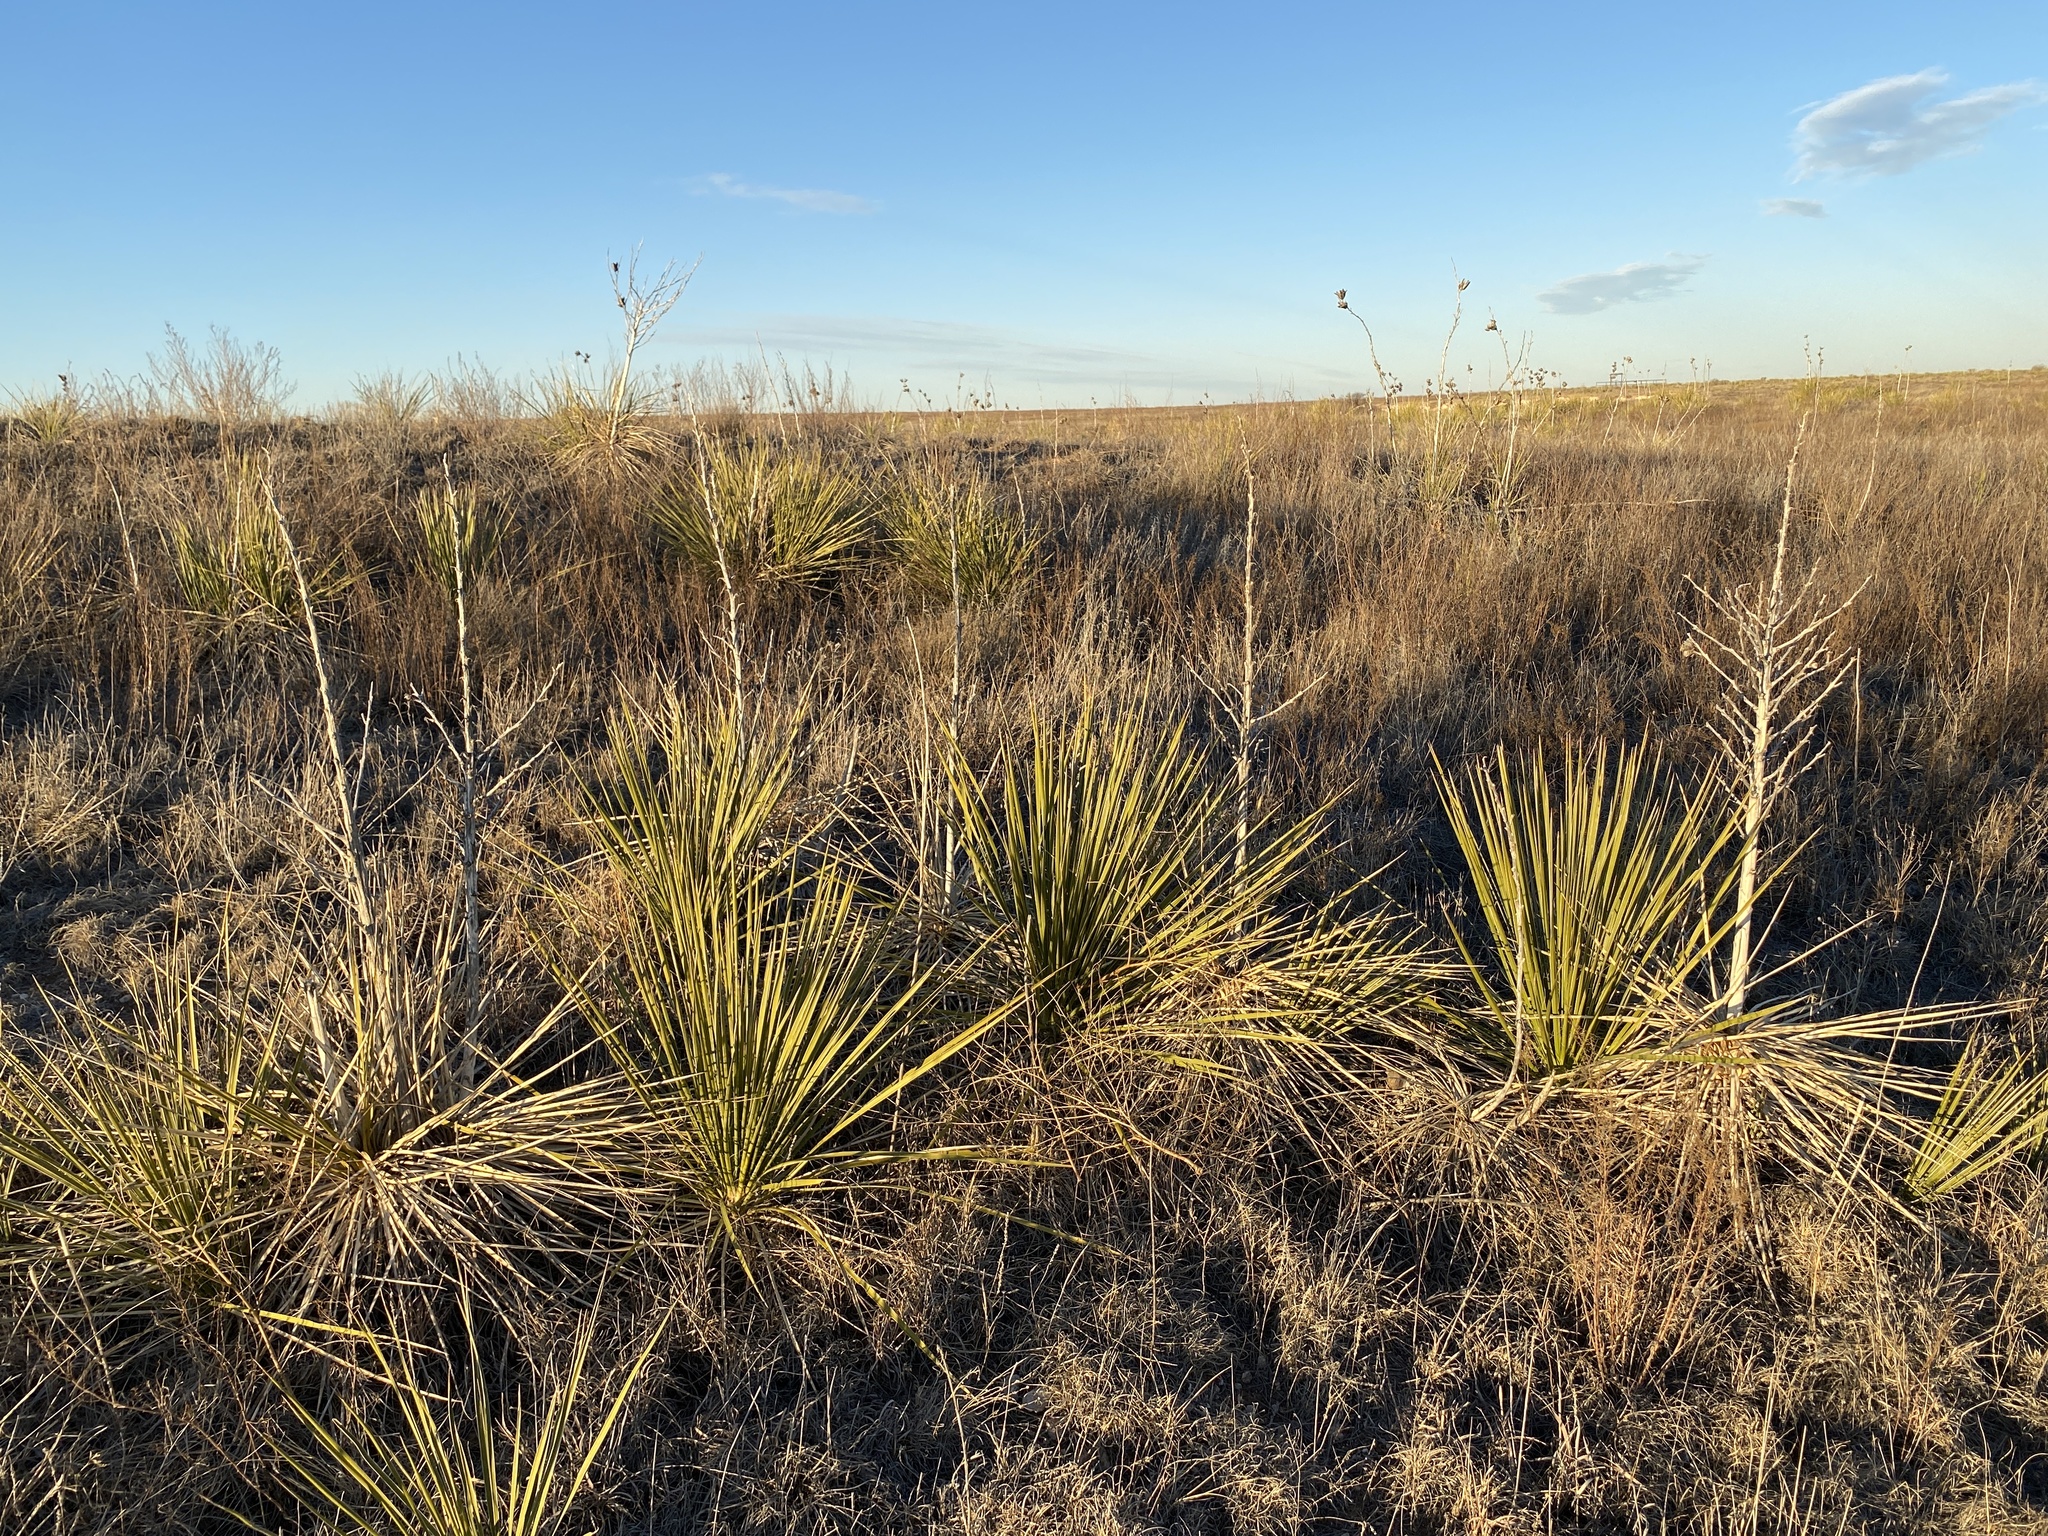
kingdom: Plantae
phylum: Tracheophyta
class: Liliopsida
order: Asparagales
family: Asparagaceae
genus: Yucca
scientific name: Yucca campestris
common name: Plains yucca
